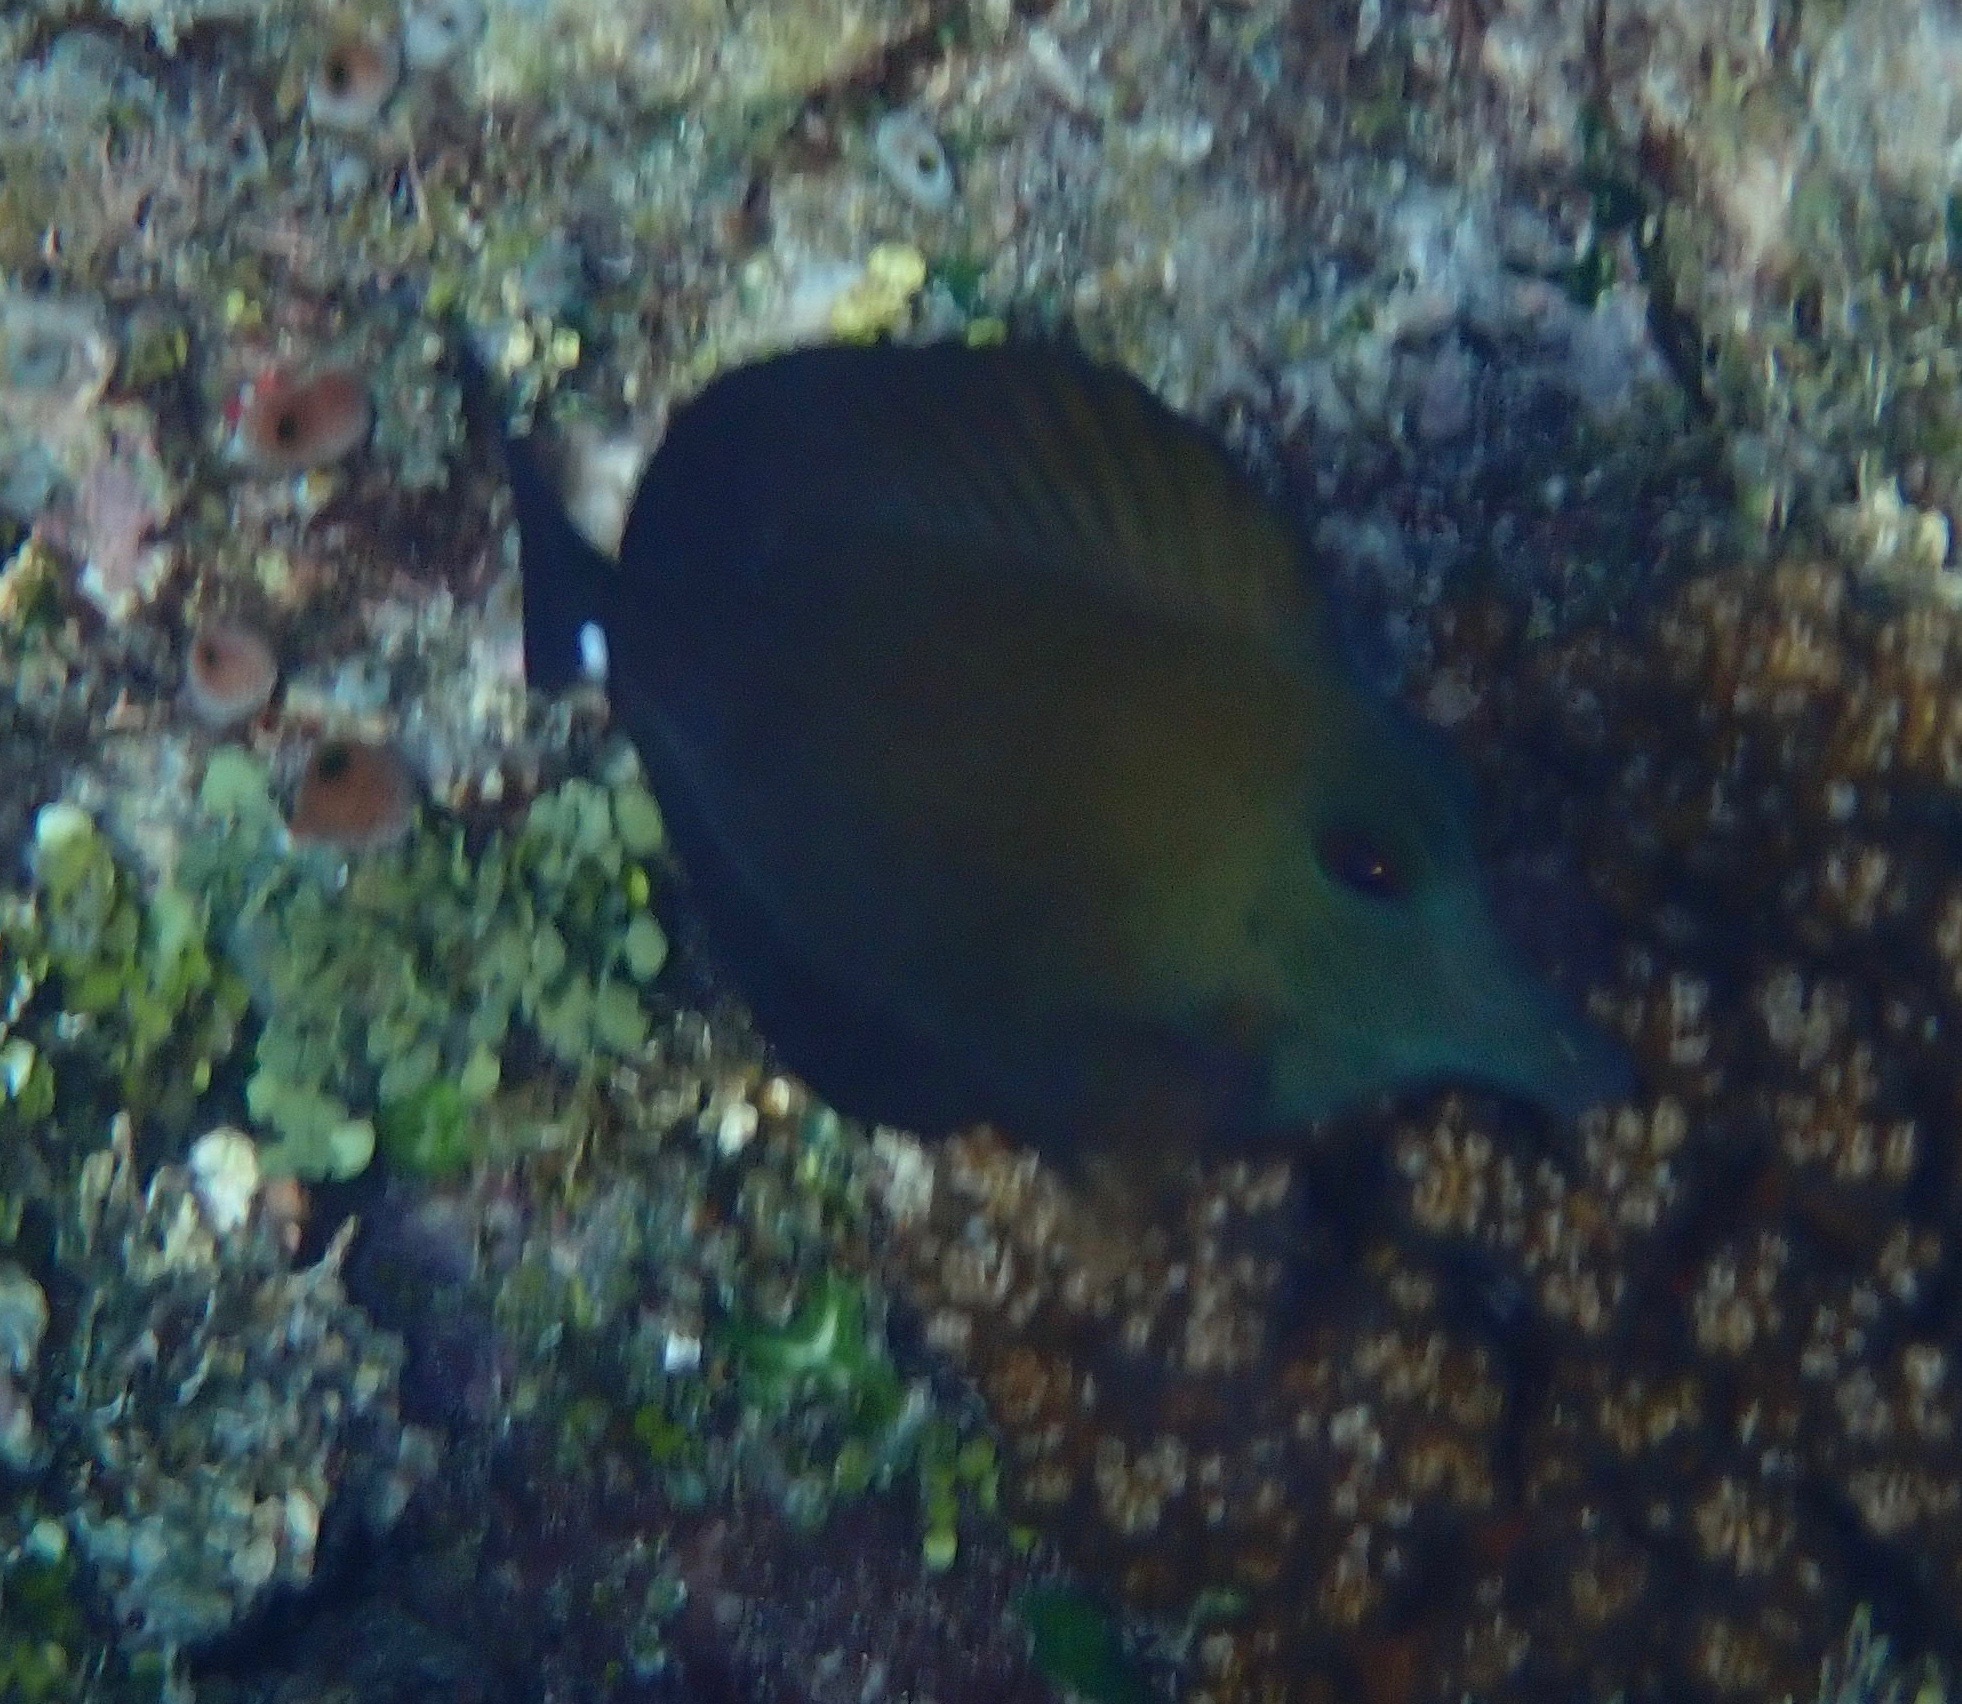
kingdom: Animalia
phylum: Chordata
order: Perciformes
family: Acanthuridae
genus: Zebrasoma
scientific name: Zebrasoma scopas
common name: Twotone tang
